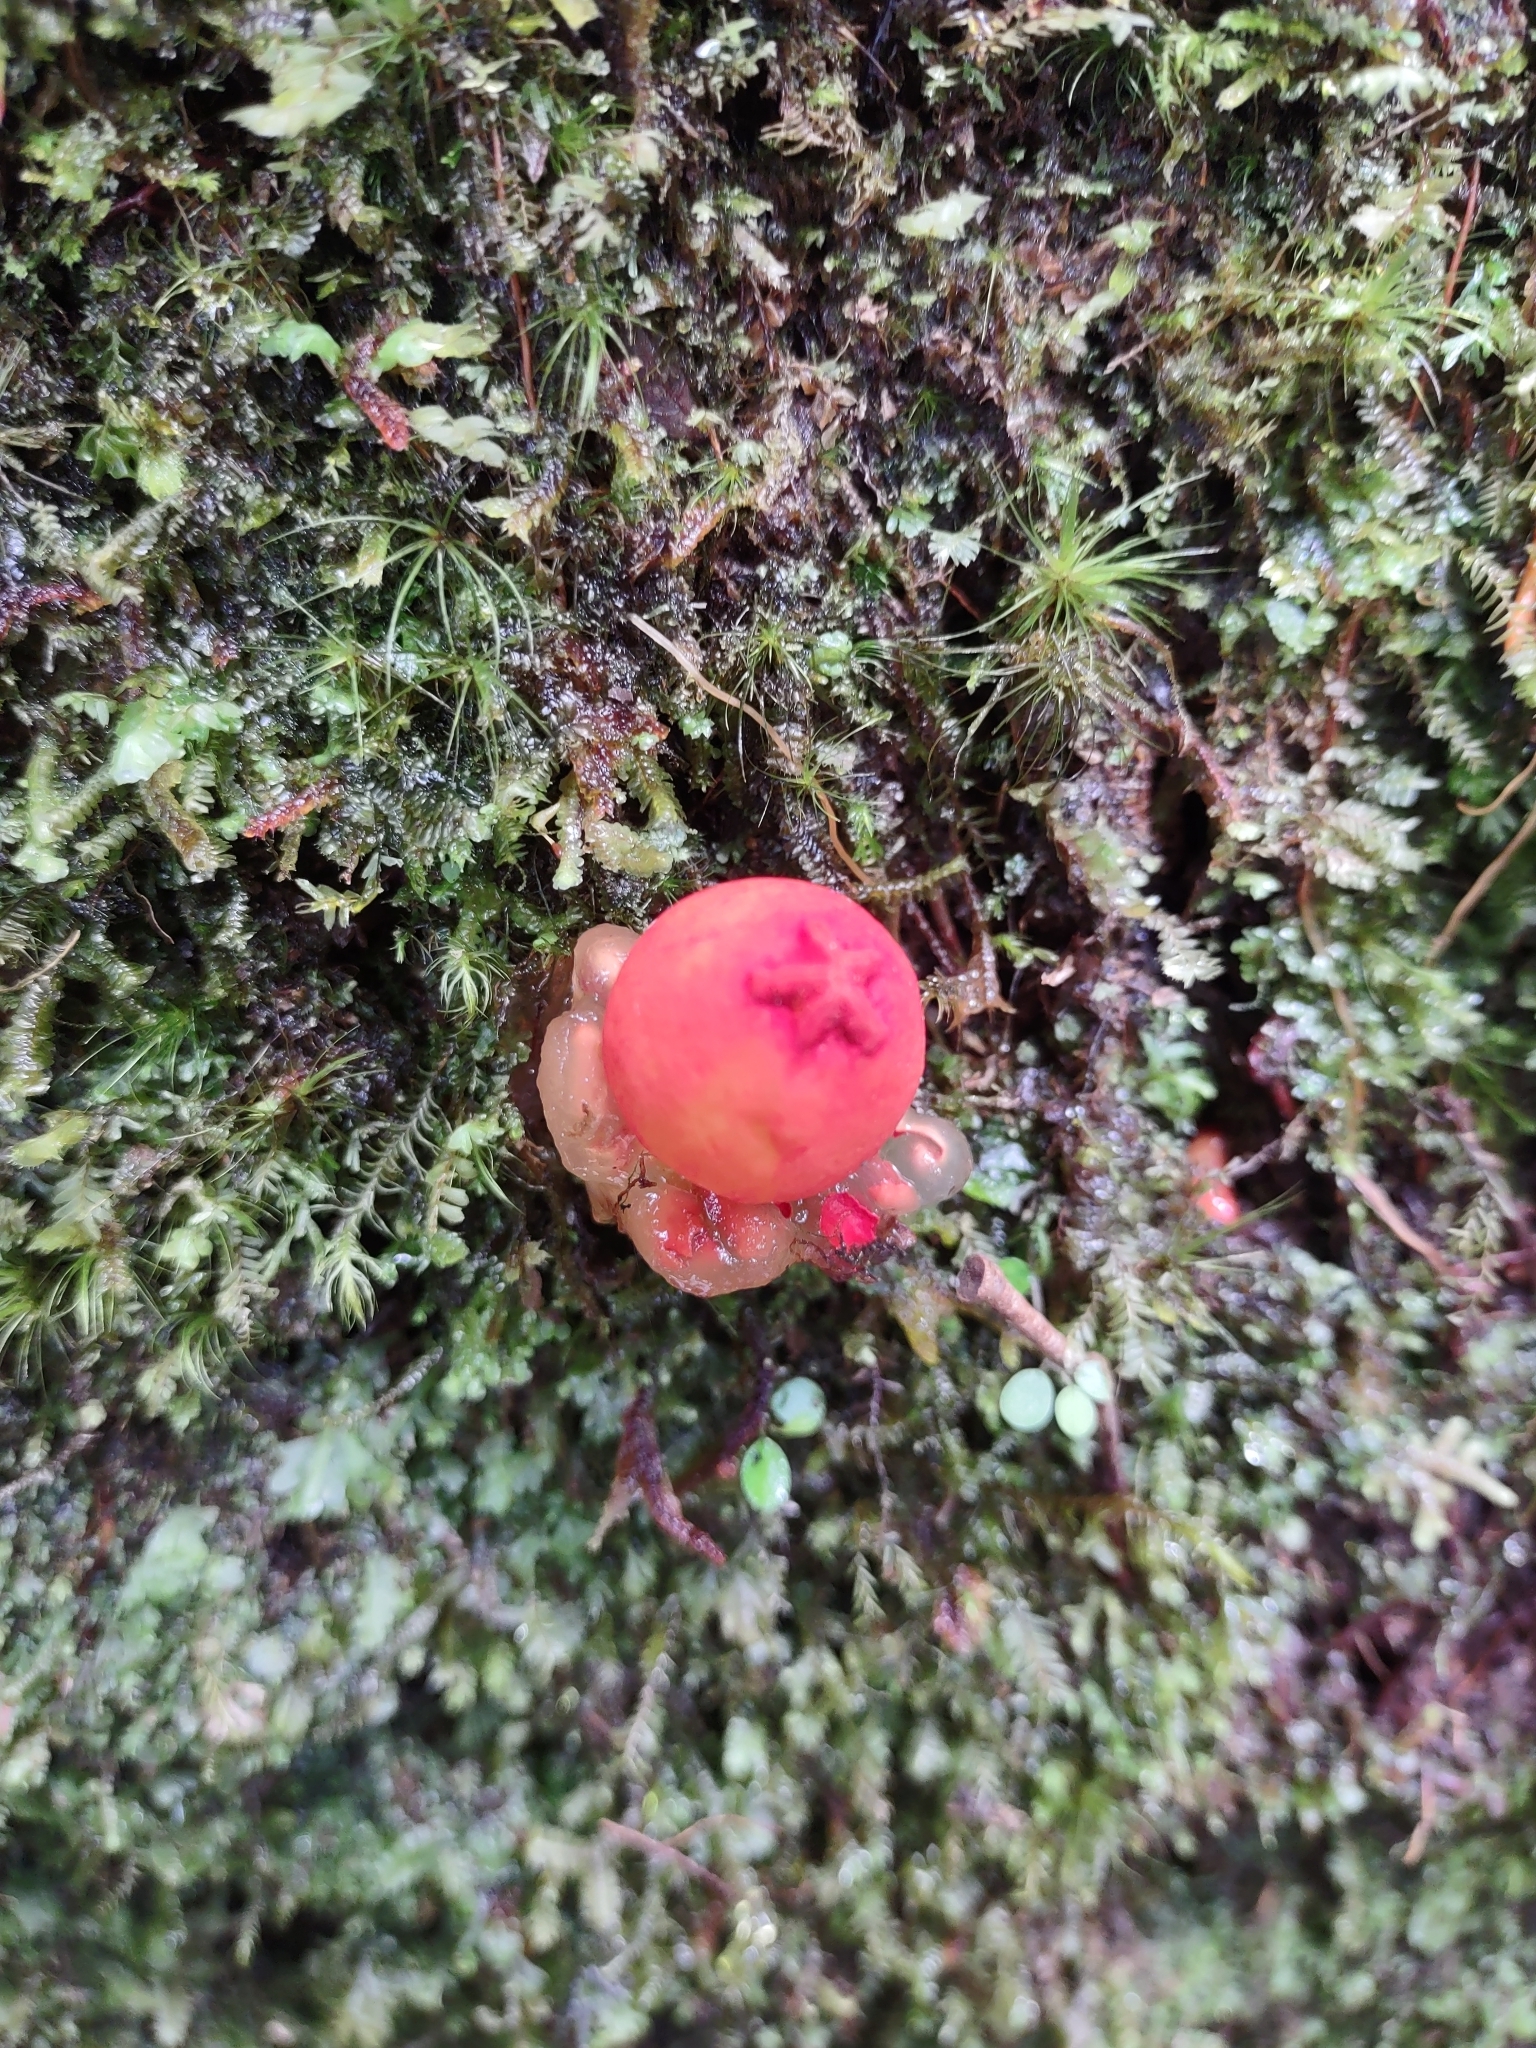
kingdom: Fungi
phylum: Basidiomycota
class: Agaricomycetes
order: Boletales
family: Calostomataceae
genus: Calostoma
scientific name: Calostoma cinnabarinum
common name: Stalked puffball-in-aspic
